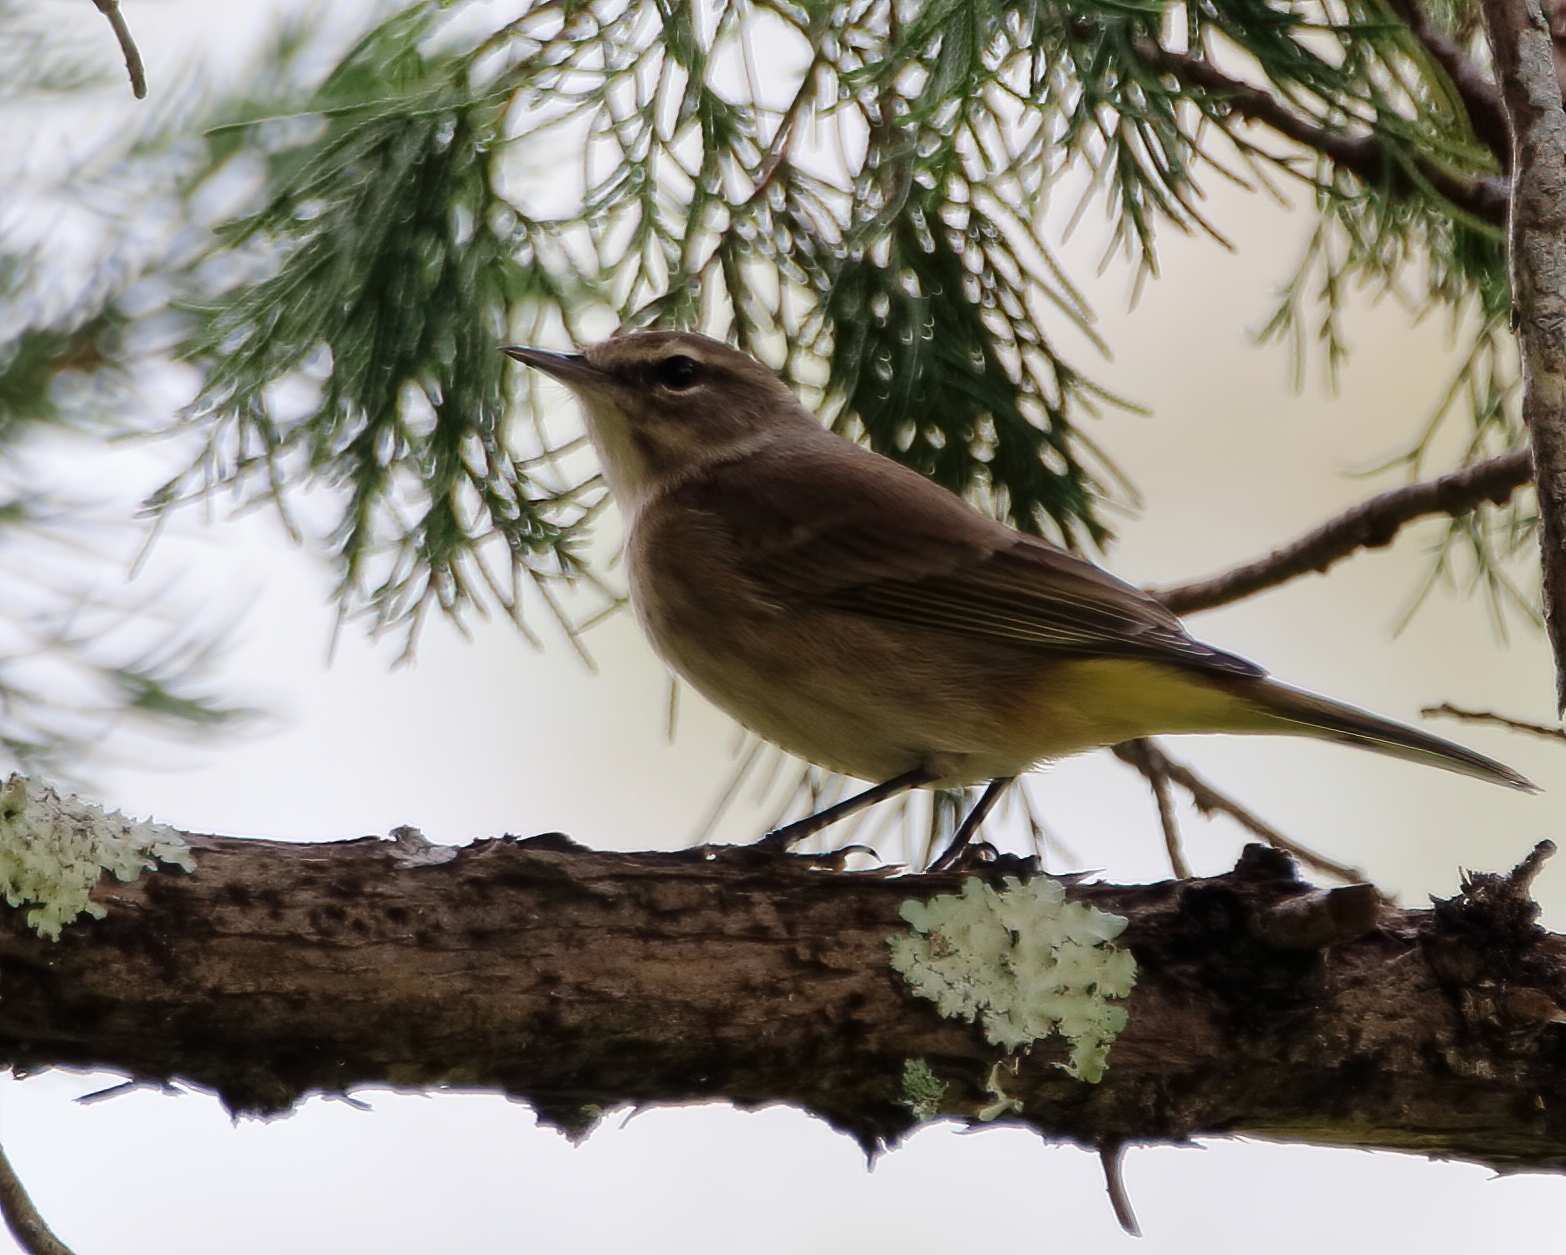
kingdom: Animalia
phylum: Chordata
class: Aves
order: Passeriformes
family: Parulidae
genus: Setophaga
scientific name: Setophaga palmarum
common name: Palm warbler
